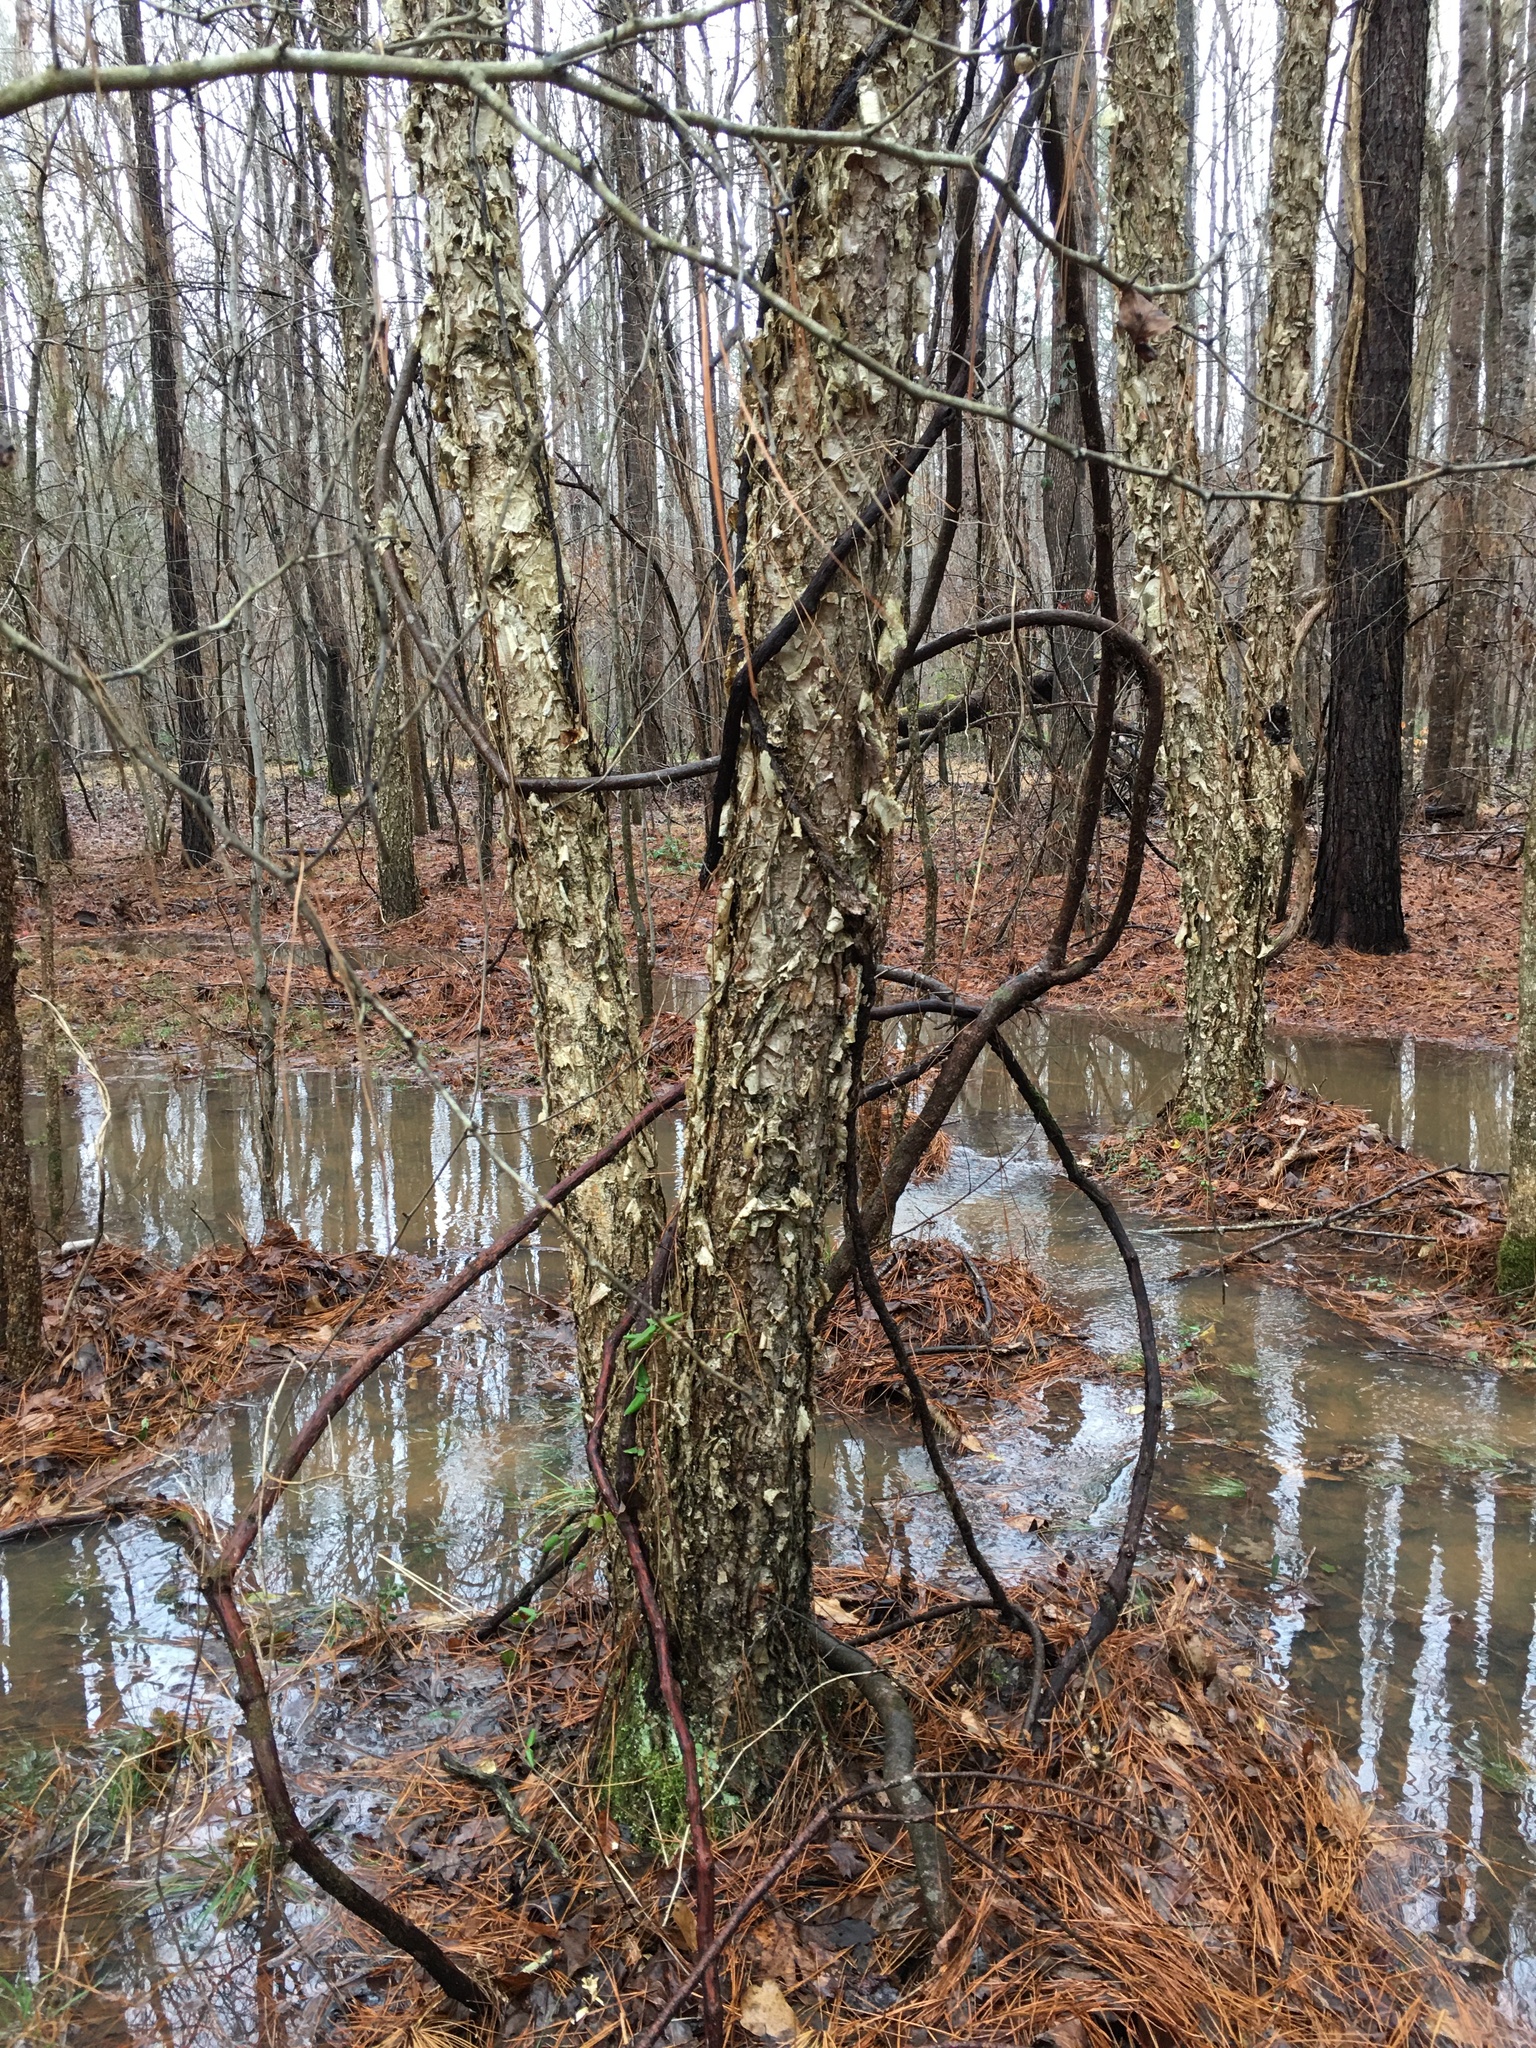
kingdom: Plantae
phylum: Tracheophyta
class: Magnoliopsida
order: Fagales
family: Betulaceae
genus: Betula
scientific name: Betula nigra
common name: Black birch
